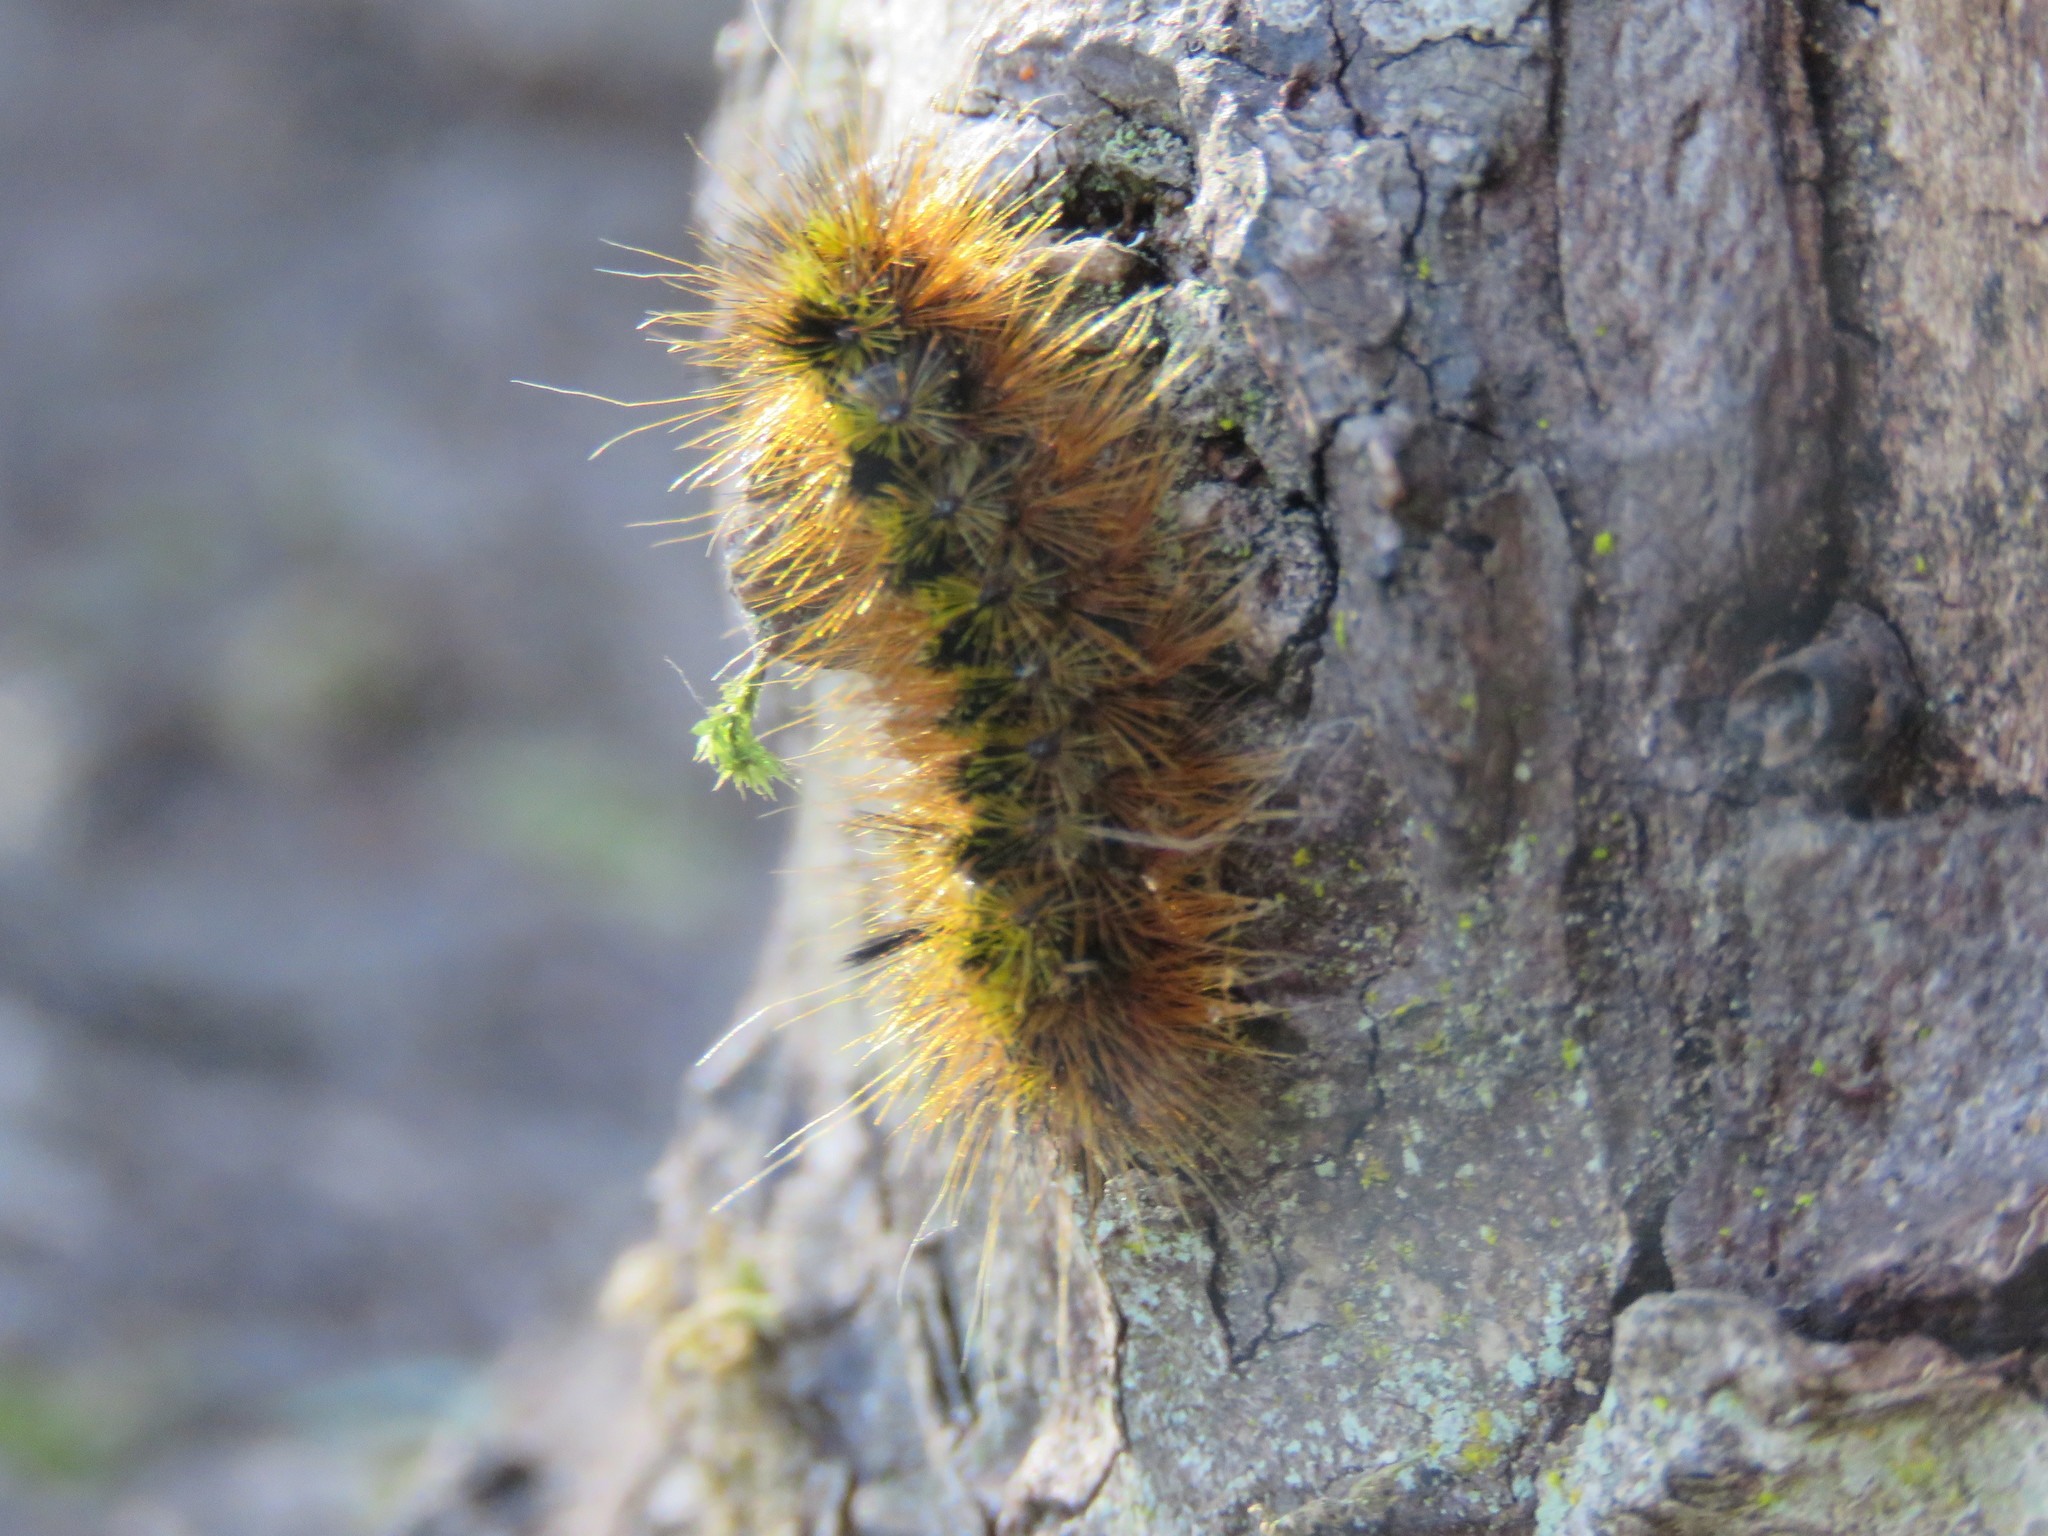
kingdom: Animalia
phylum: Arthropoda
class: Insecta
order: Lepidoptera
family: Erebidae
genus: Lophocampa
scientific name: Lophocampa argentata
